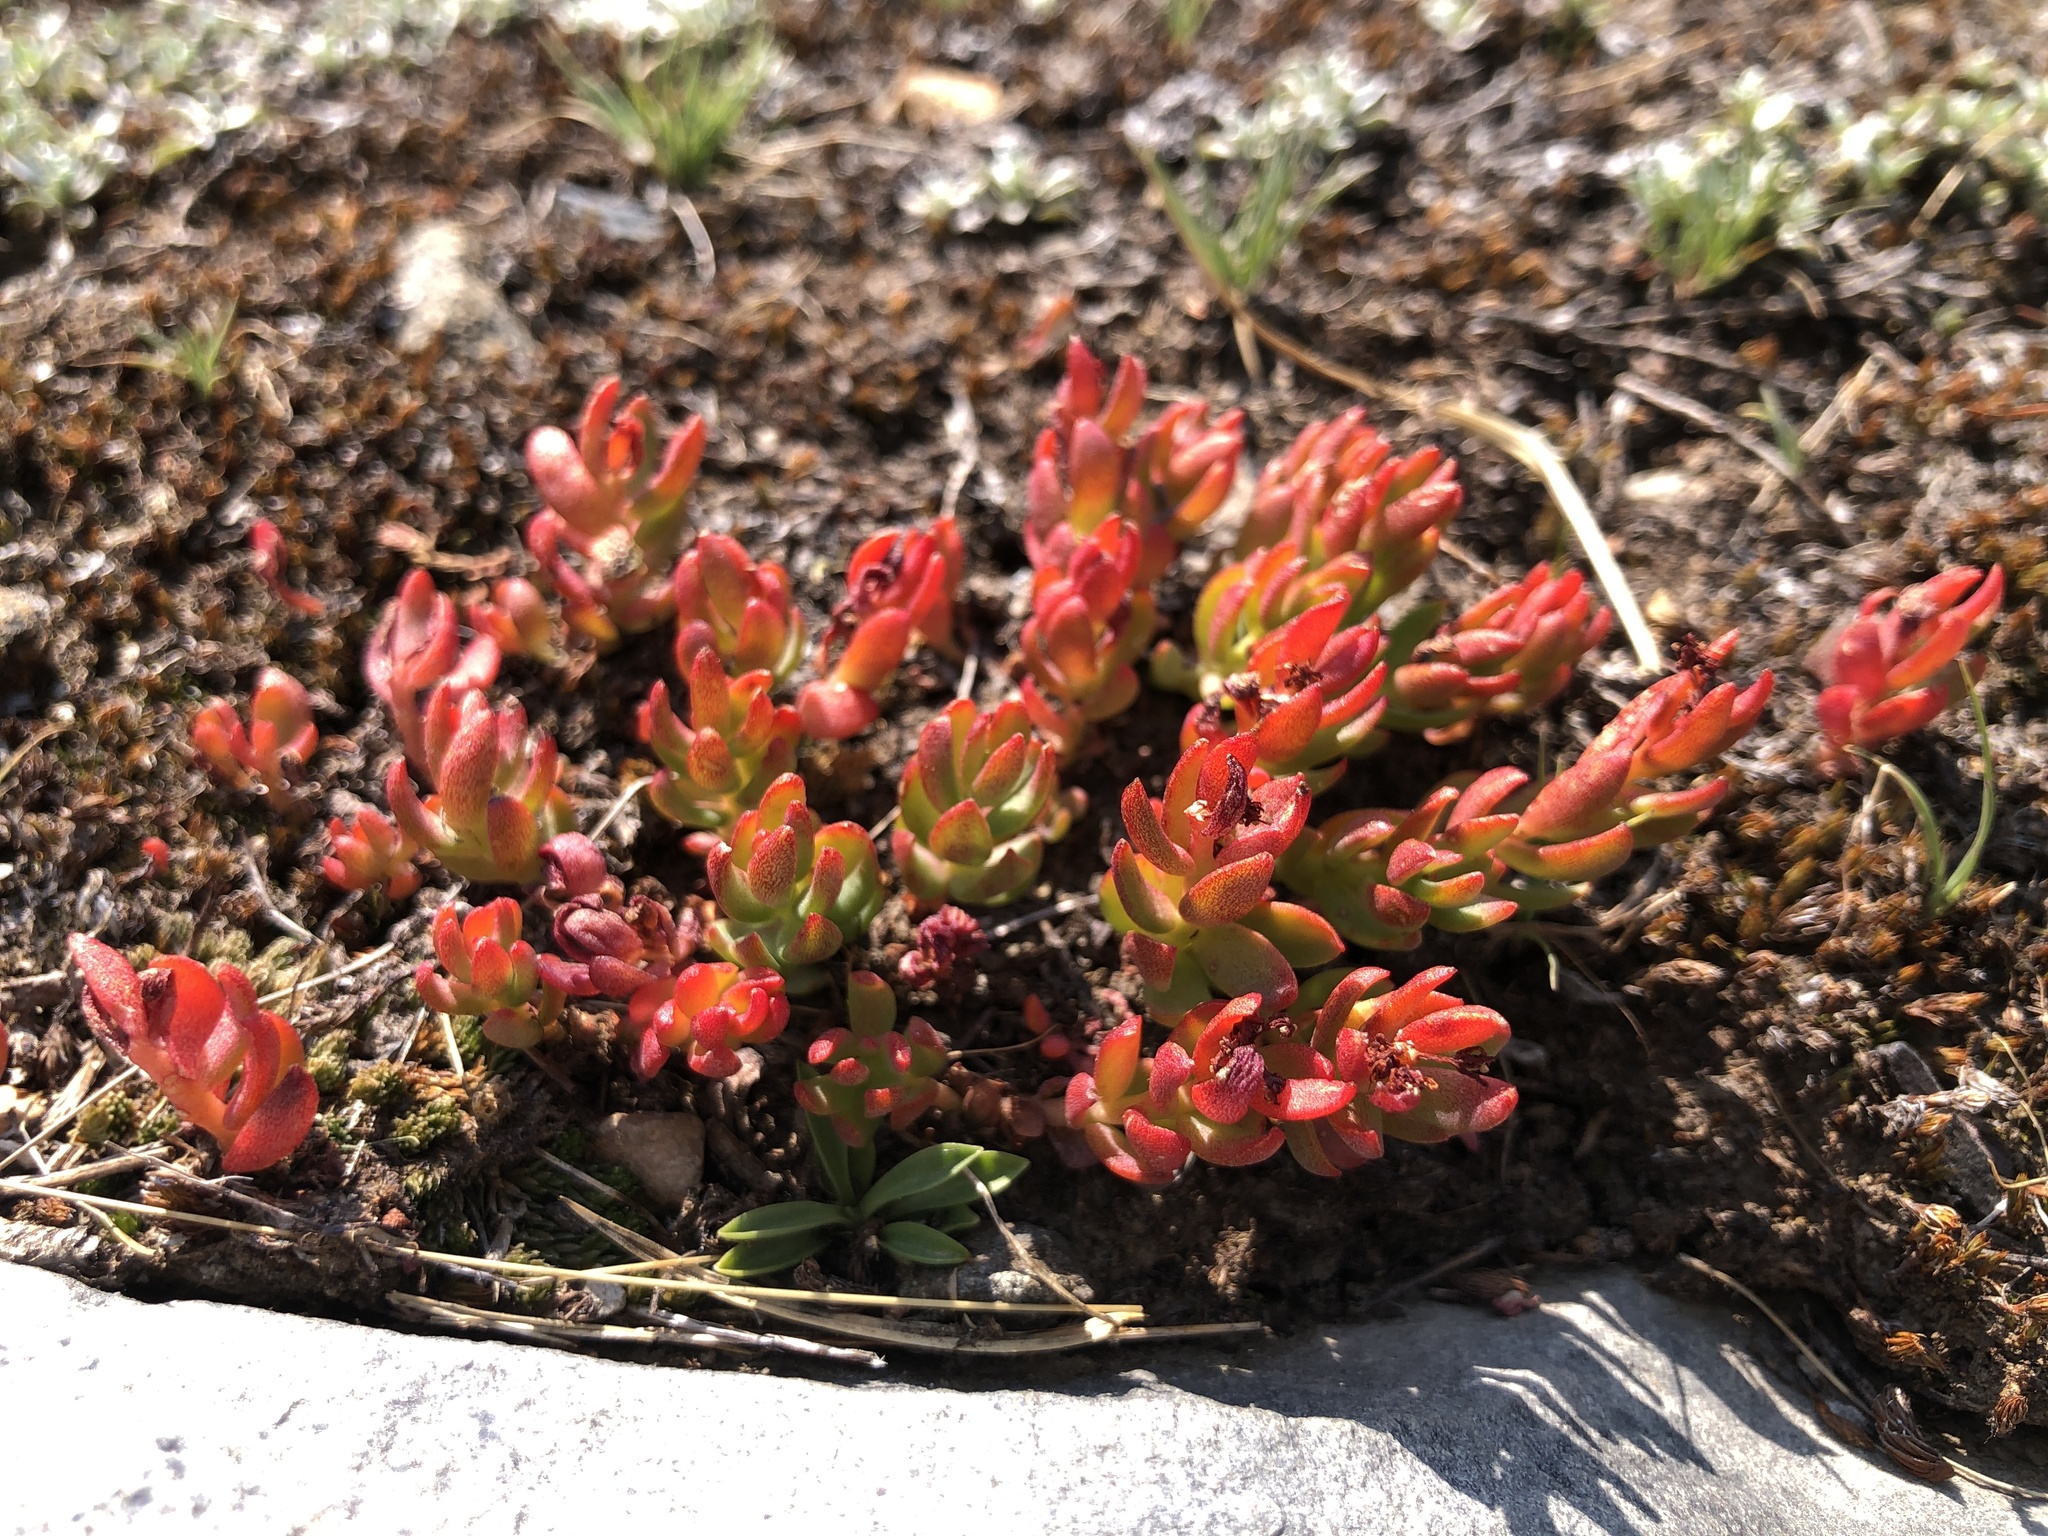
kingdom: Plantae
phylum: Tracheophyta
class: Magnoliopsida
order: Saxifragales
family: Crassulaceae
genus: Rhodiola
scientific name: Rhodiola integrifolia
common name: Western roseroot
